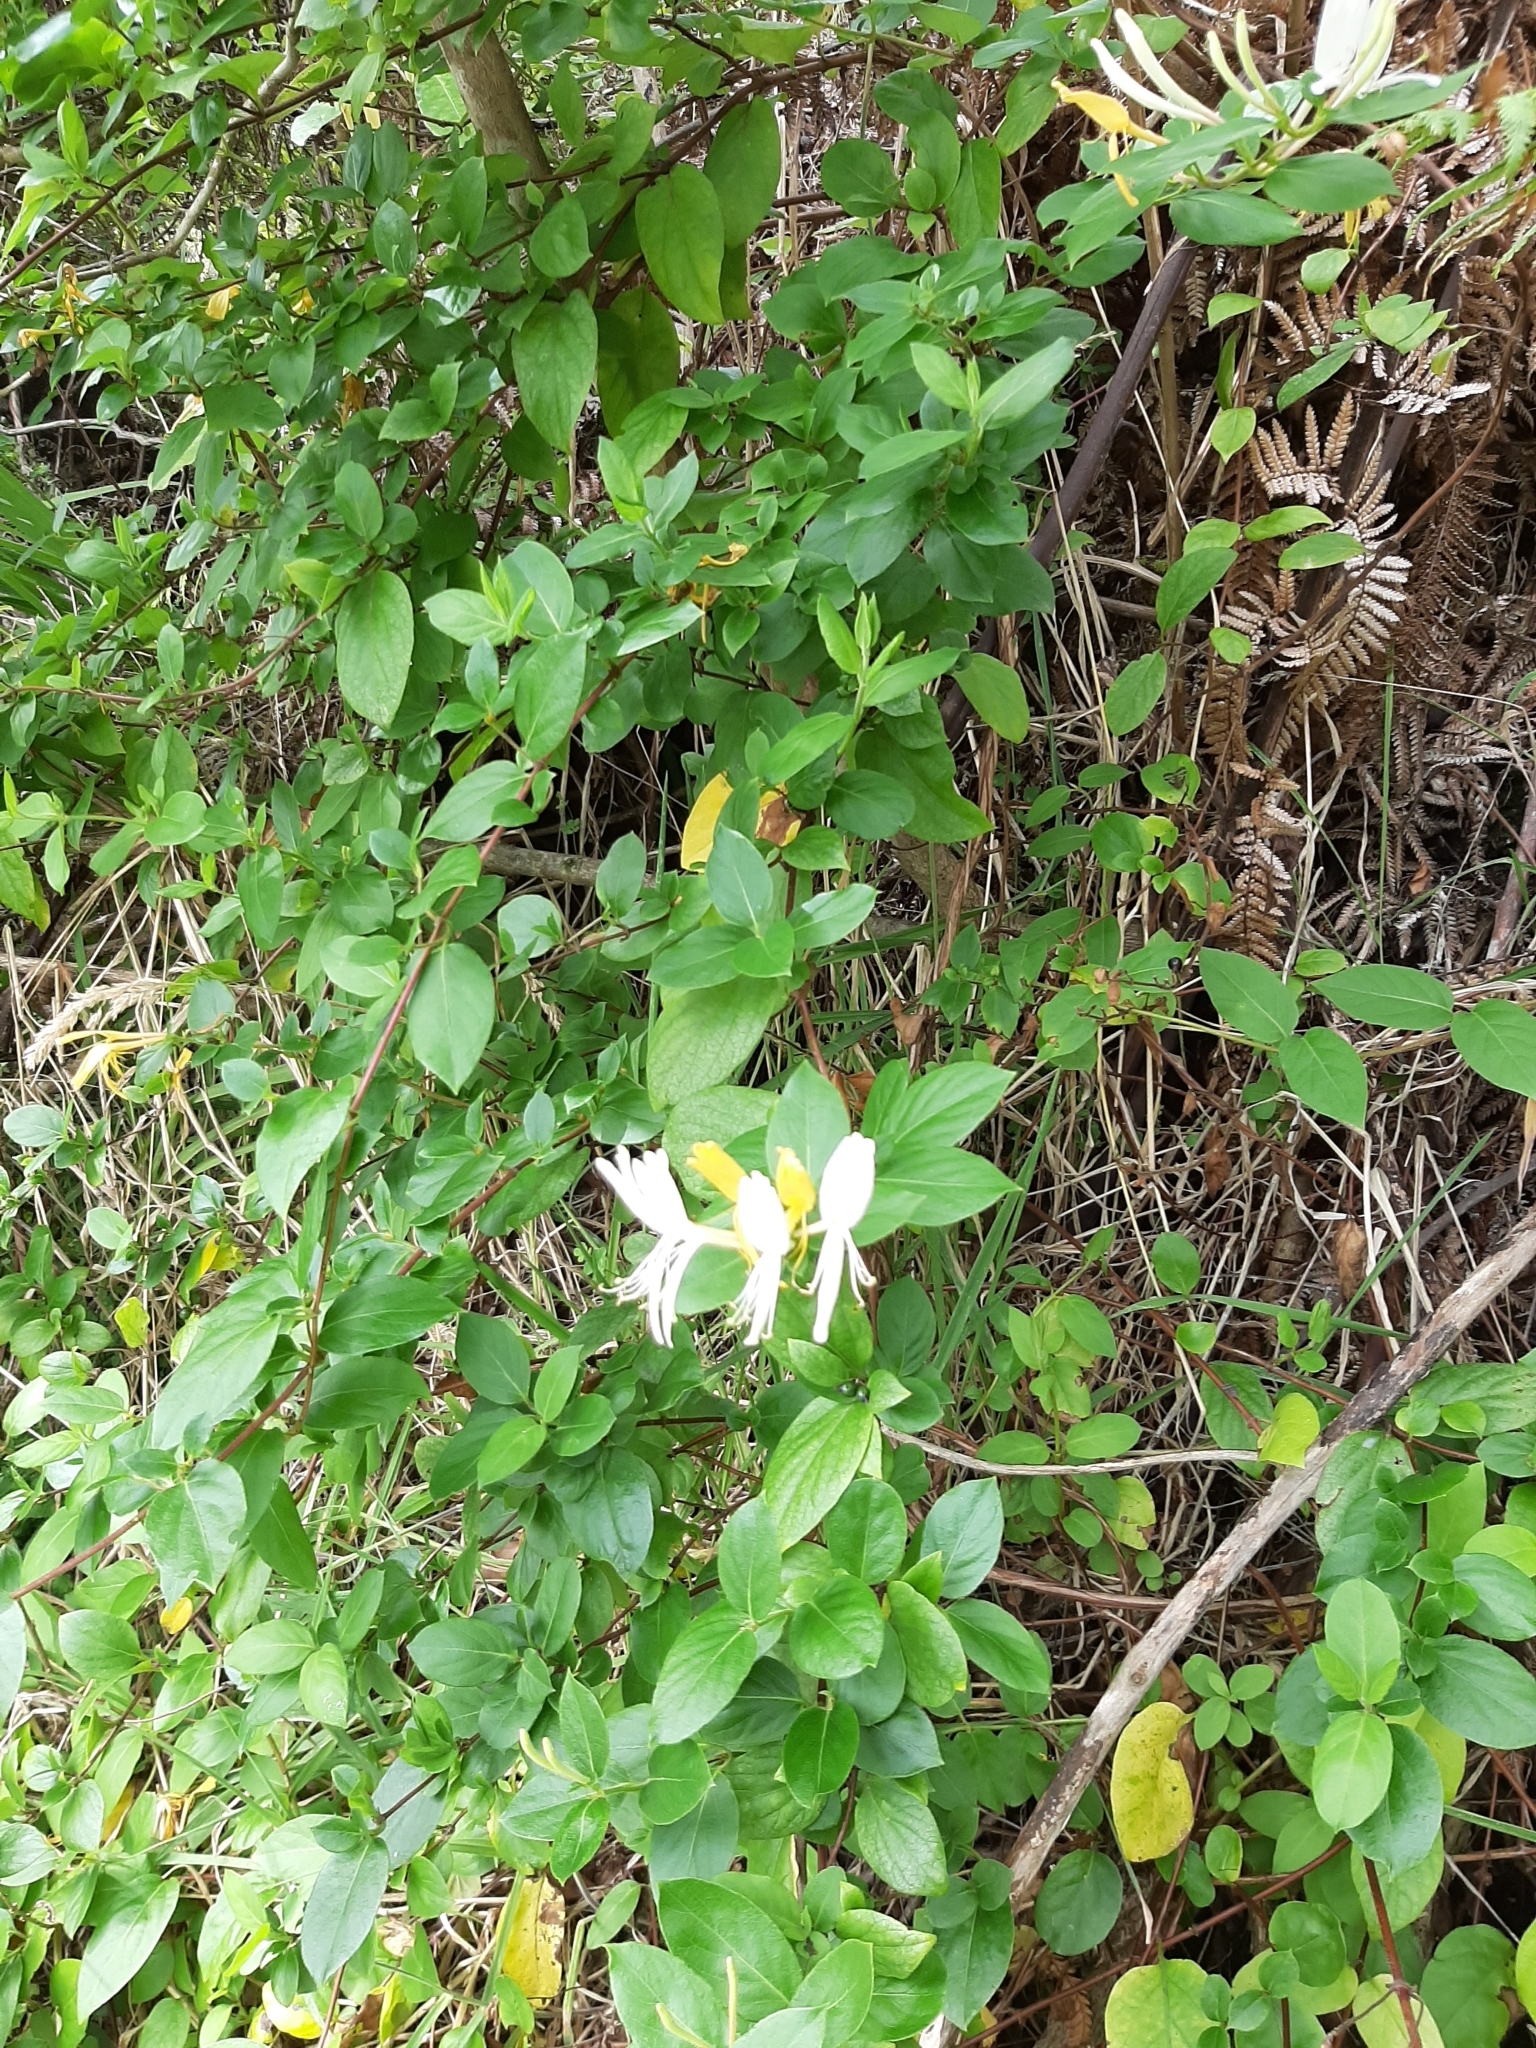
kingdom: Plantae
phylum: Tracheophyta
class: Magnoliopsida
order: Dipsacales
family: Caprifoliaceae
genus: Lonicera
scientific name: Lonicera japonica
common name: Japanese honeysuckle
